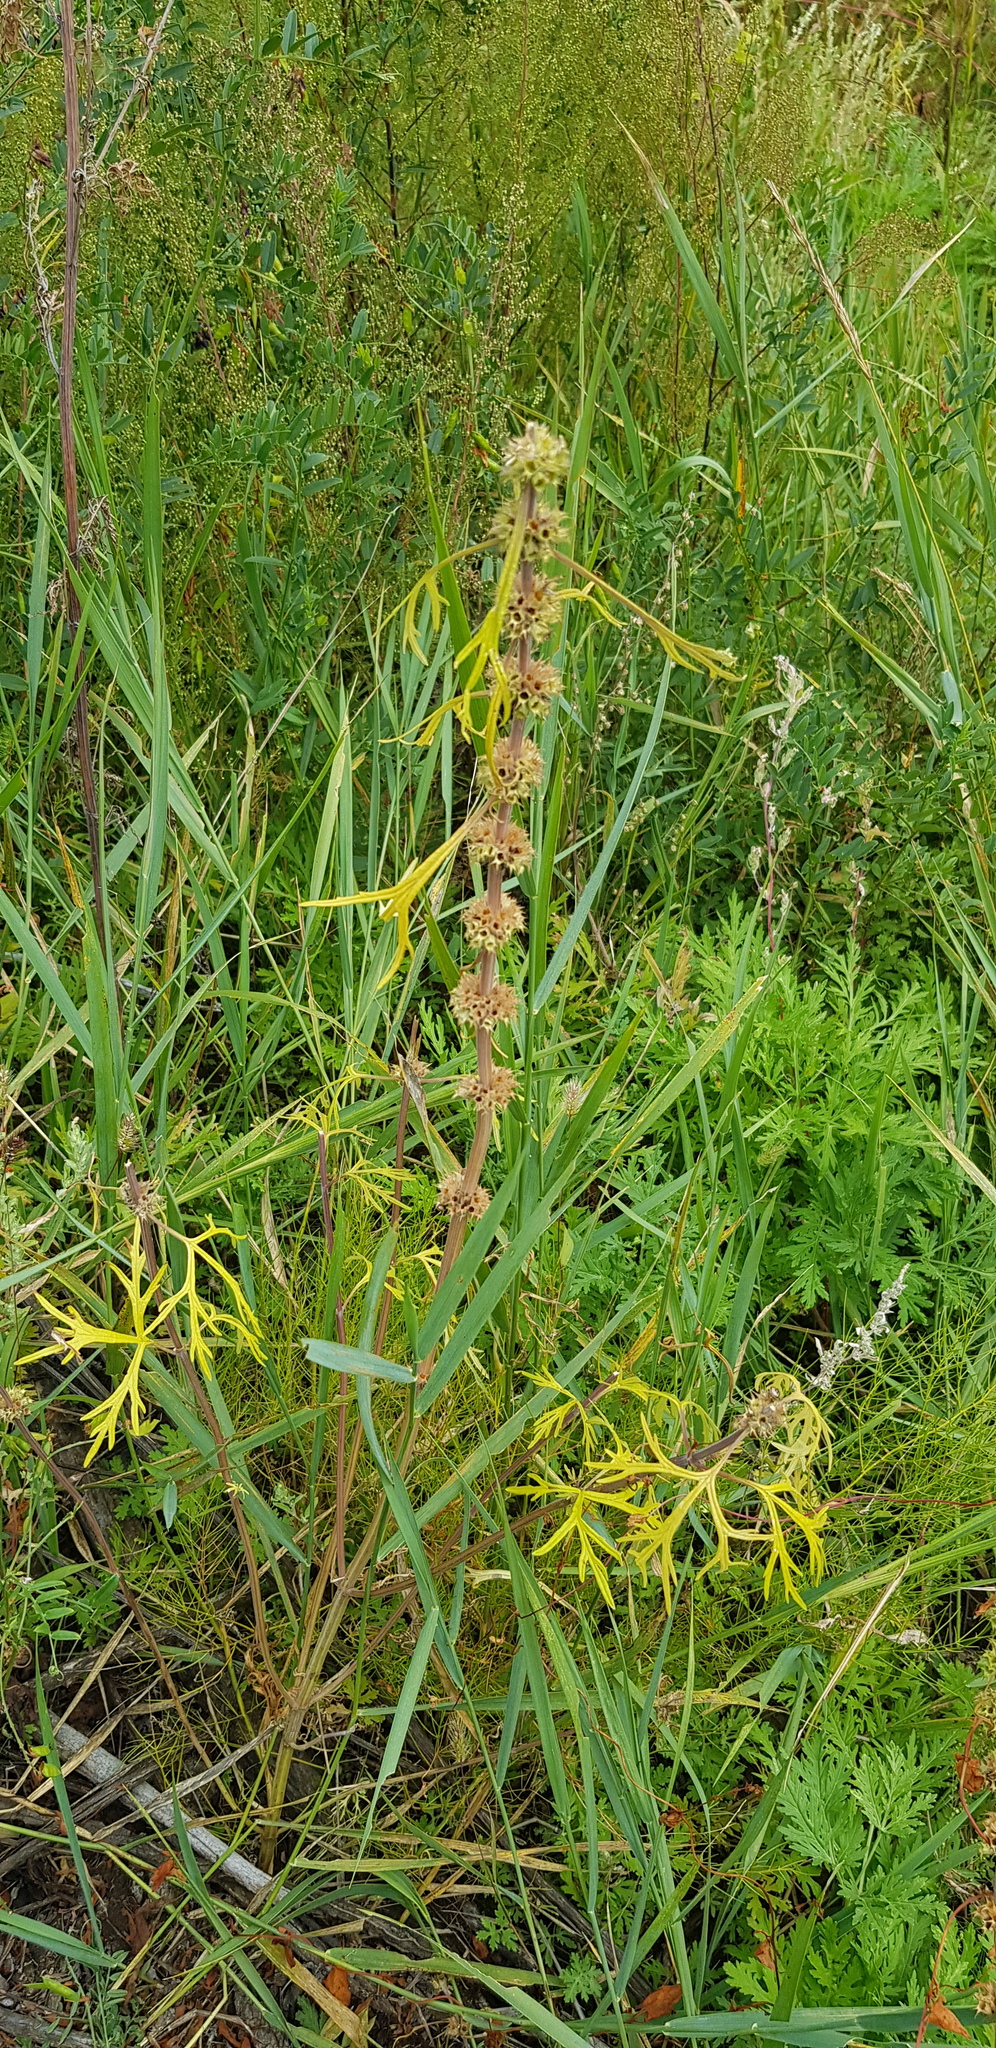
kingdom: Plantae
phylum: Tracheophyta
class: Magnoliopsida
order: Lamiales
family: Lamiaceae
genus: Leonurus
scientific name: Leonurus sibiricus
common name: Honeyweed
